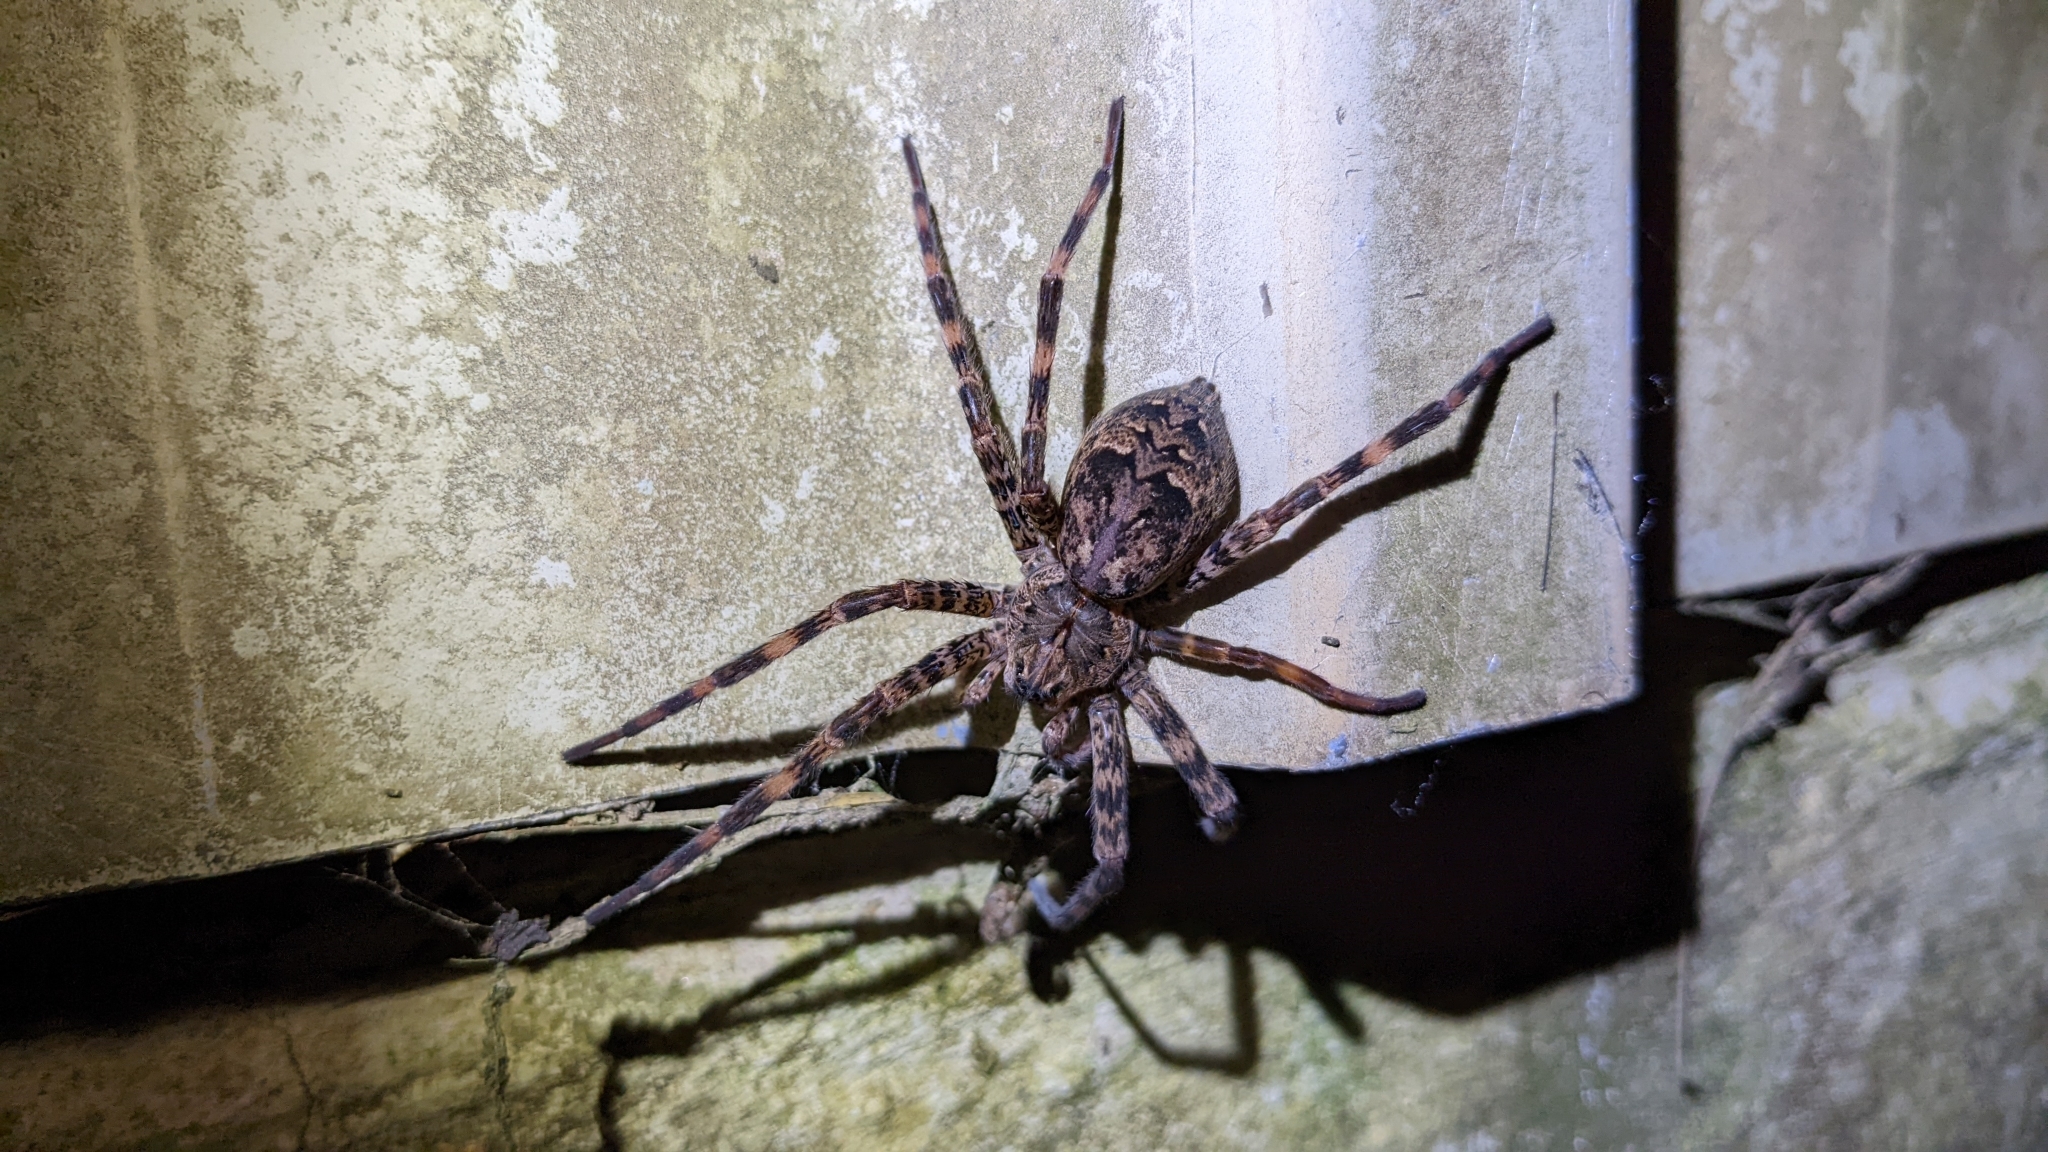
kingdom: Animalia
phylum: Arthropoda
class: Arachnida
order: Araneae
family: Pisauridae
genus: Dolomedes
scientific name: Dolomedes tenebrosus
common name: Dark fishing spider
